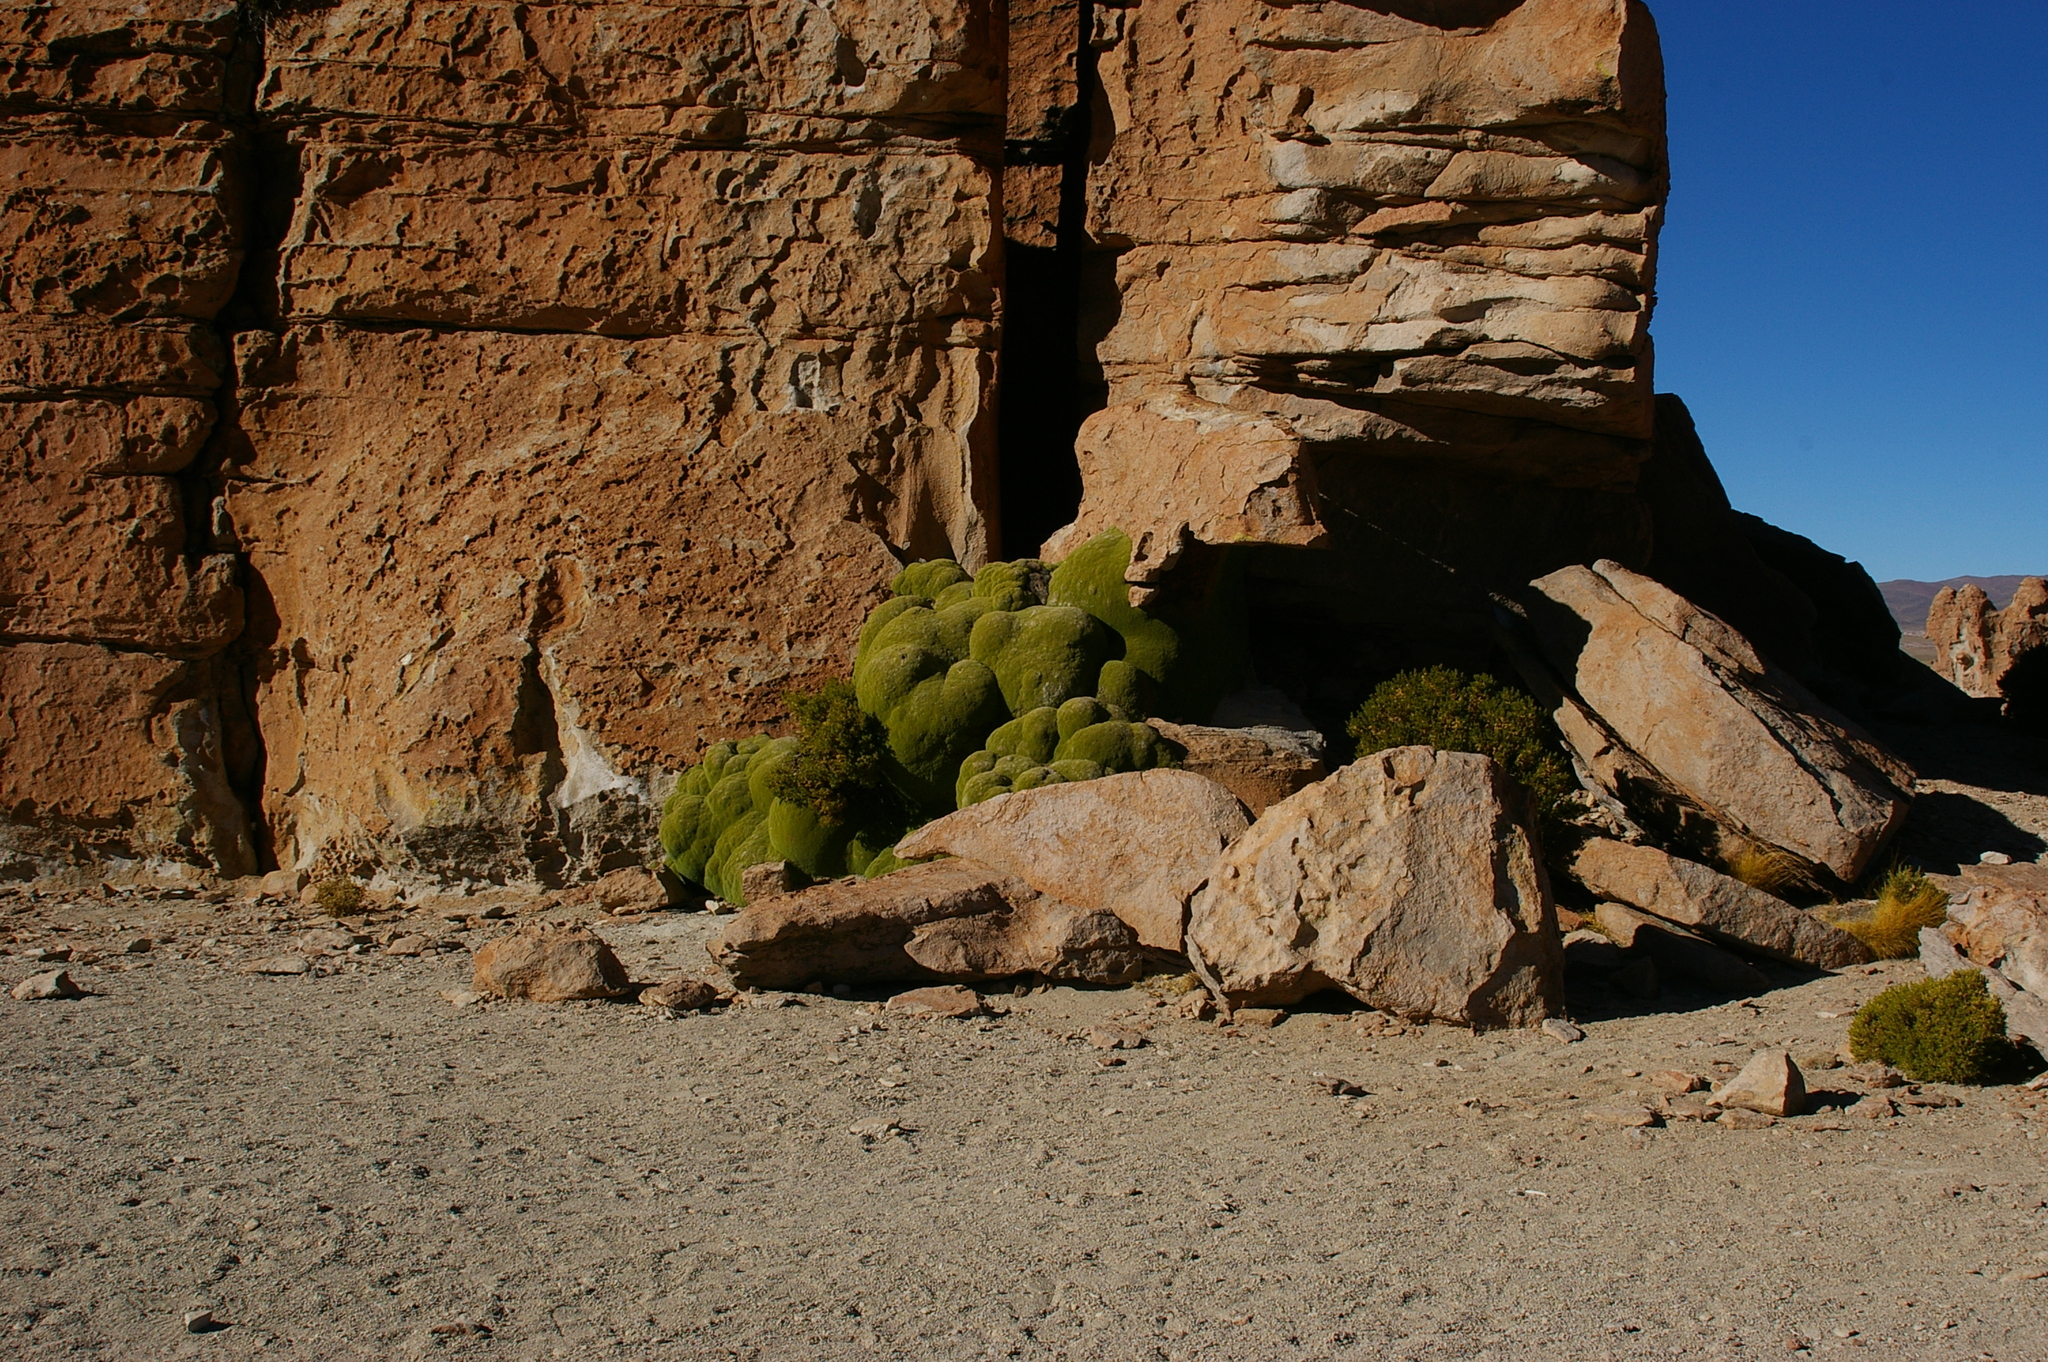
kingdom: Plantae
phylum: Tracheophyta
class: Magnoliopsida
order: Apiales
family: Apiaceae
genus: Azorella
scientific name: Azorella compacta
